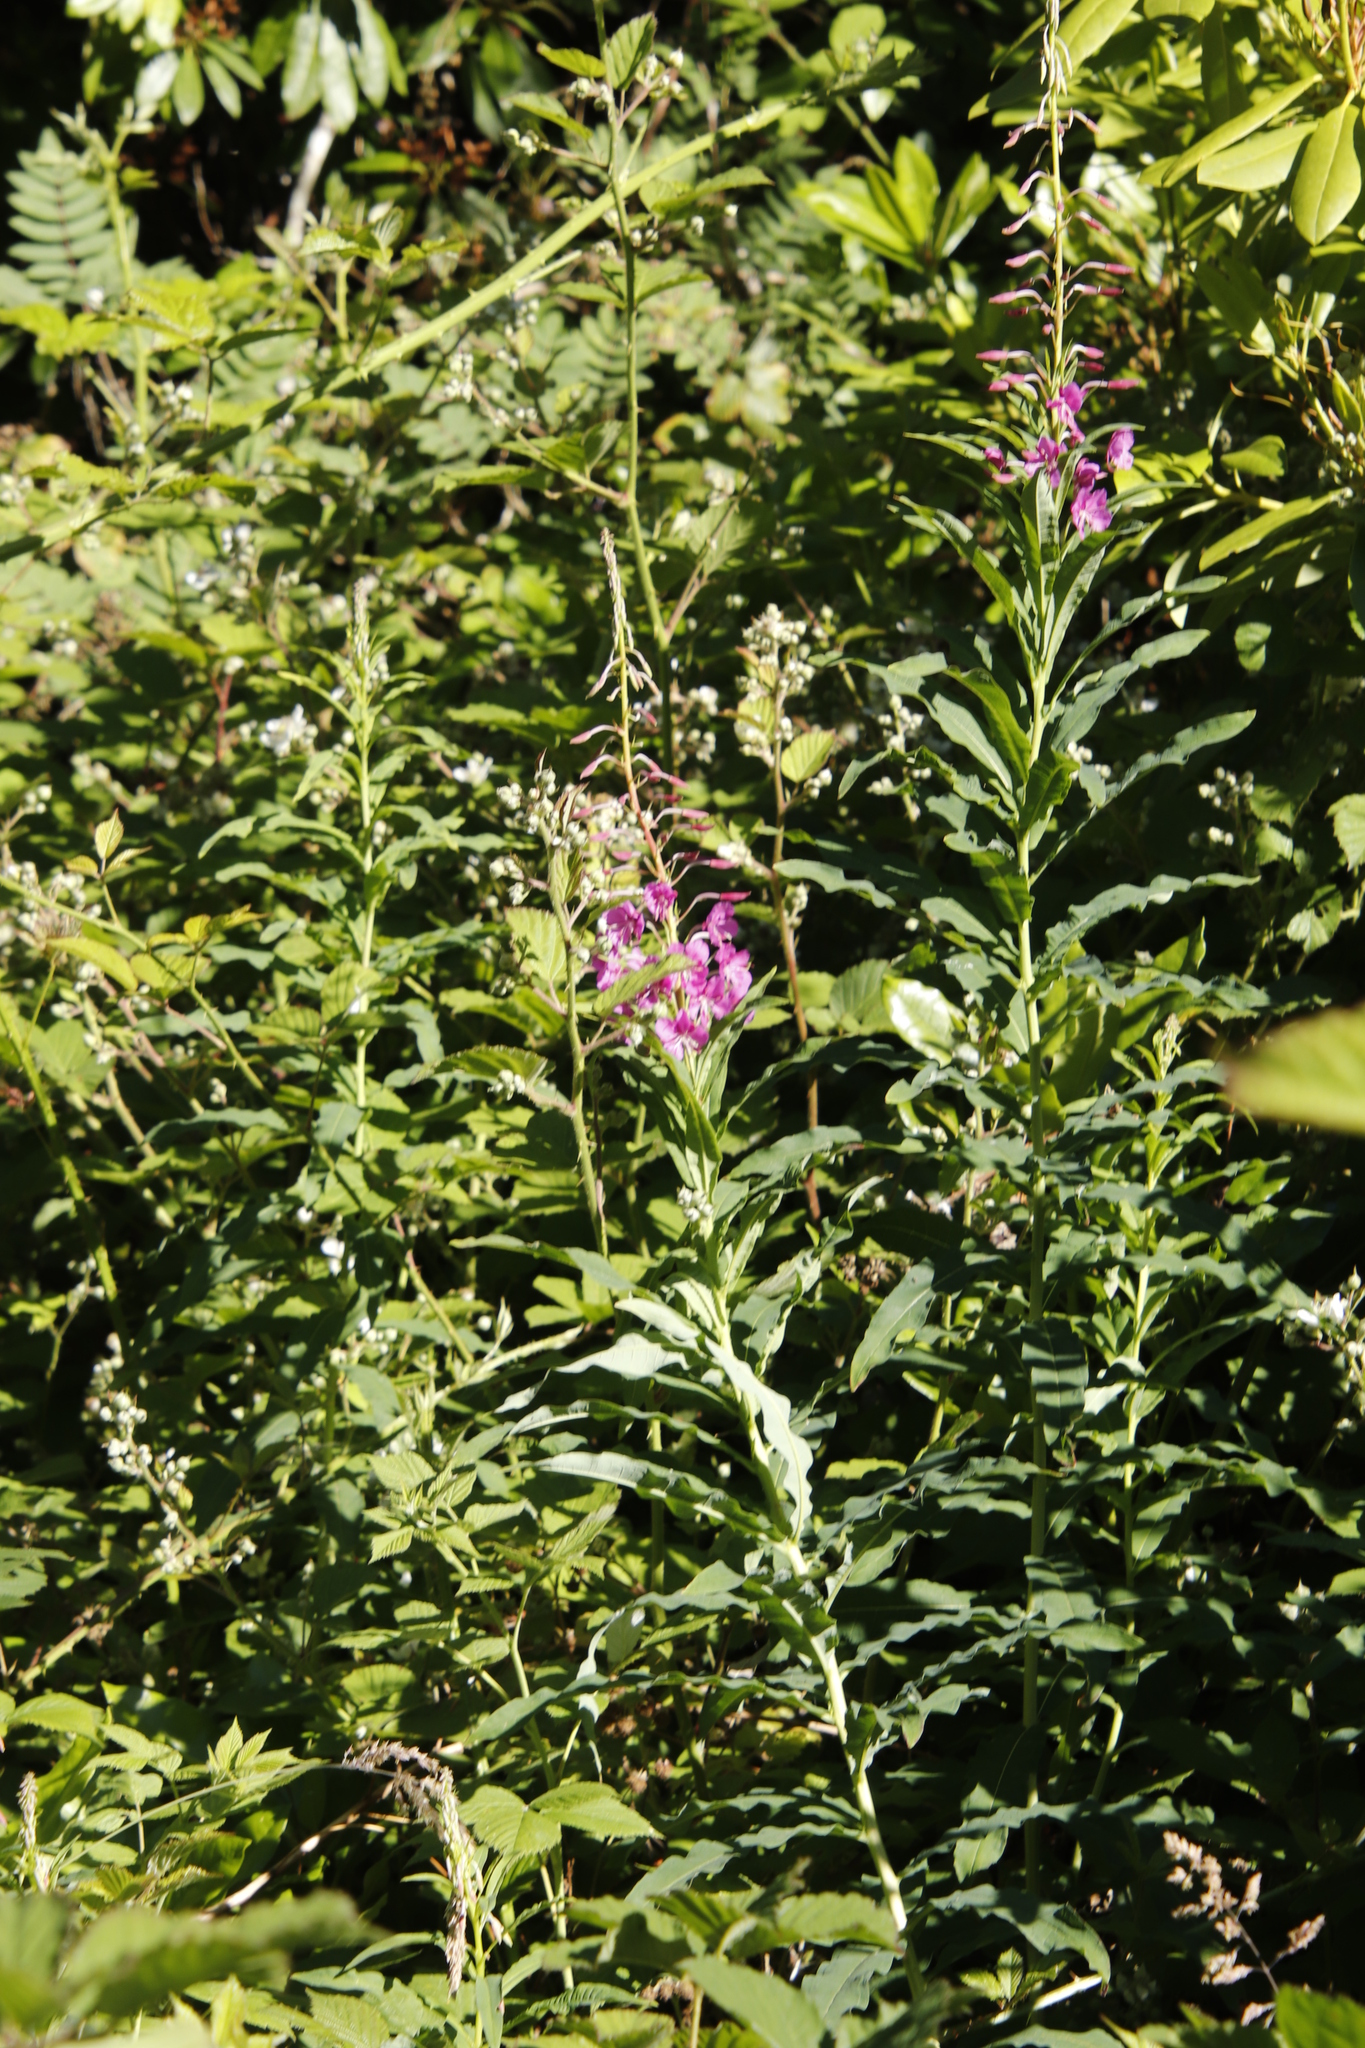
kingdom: Plantae
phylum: Tracheophyta
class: Magnoliopsida
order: Myrtales
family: Onagraceae
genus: Chamaenerion
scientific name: Chamaenerion angustifolium
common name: Fireweed
